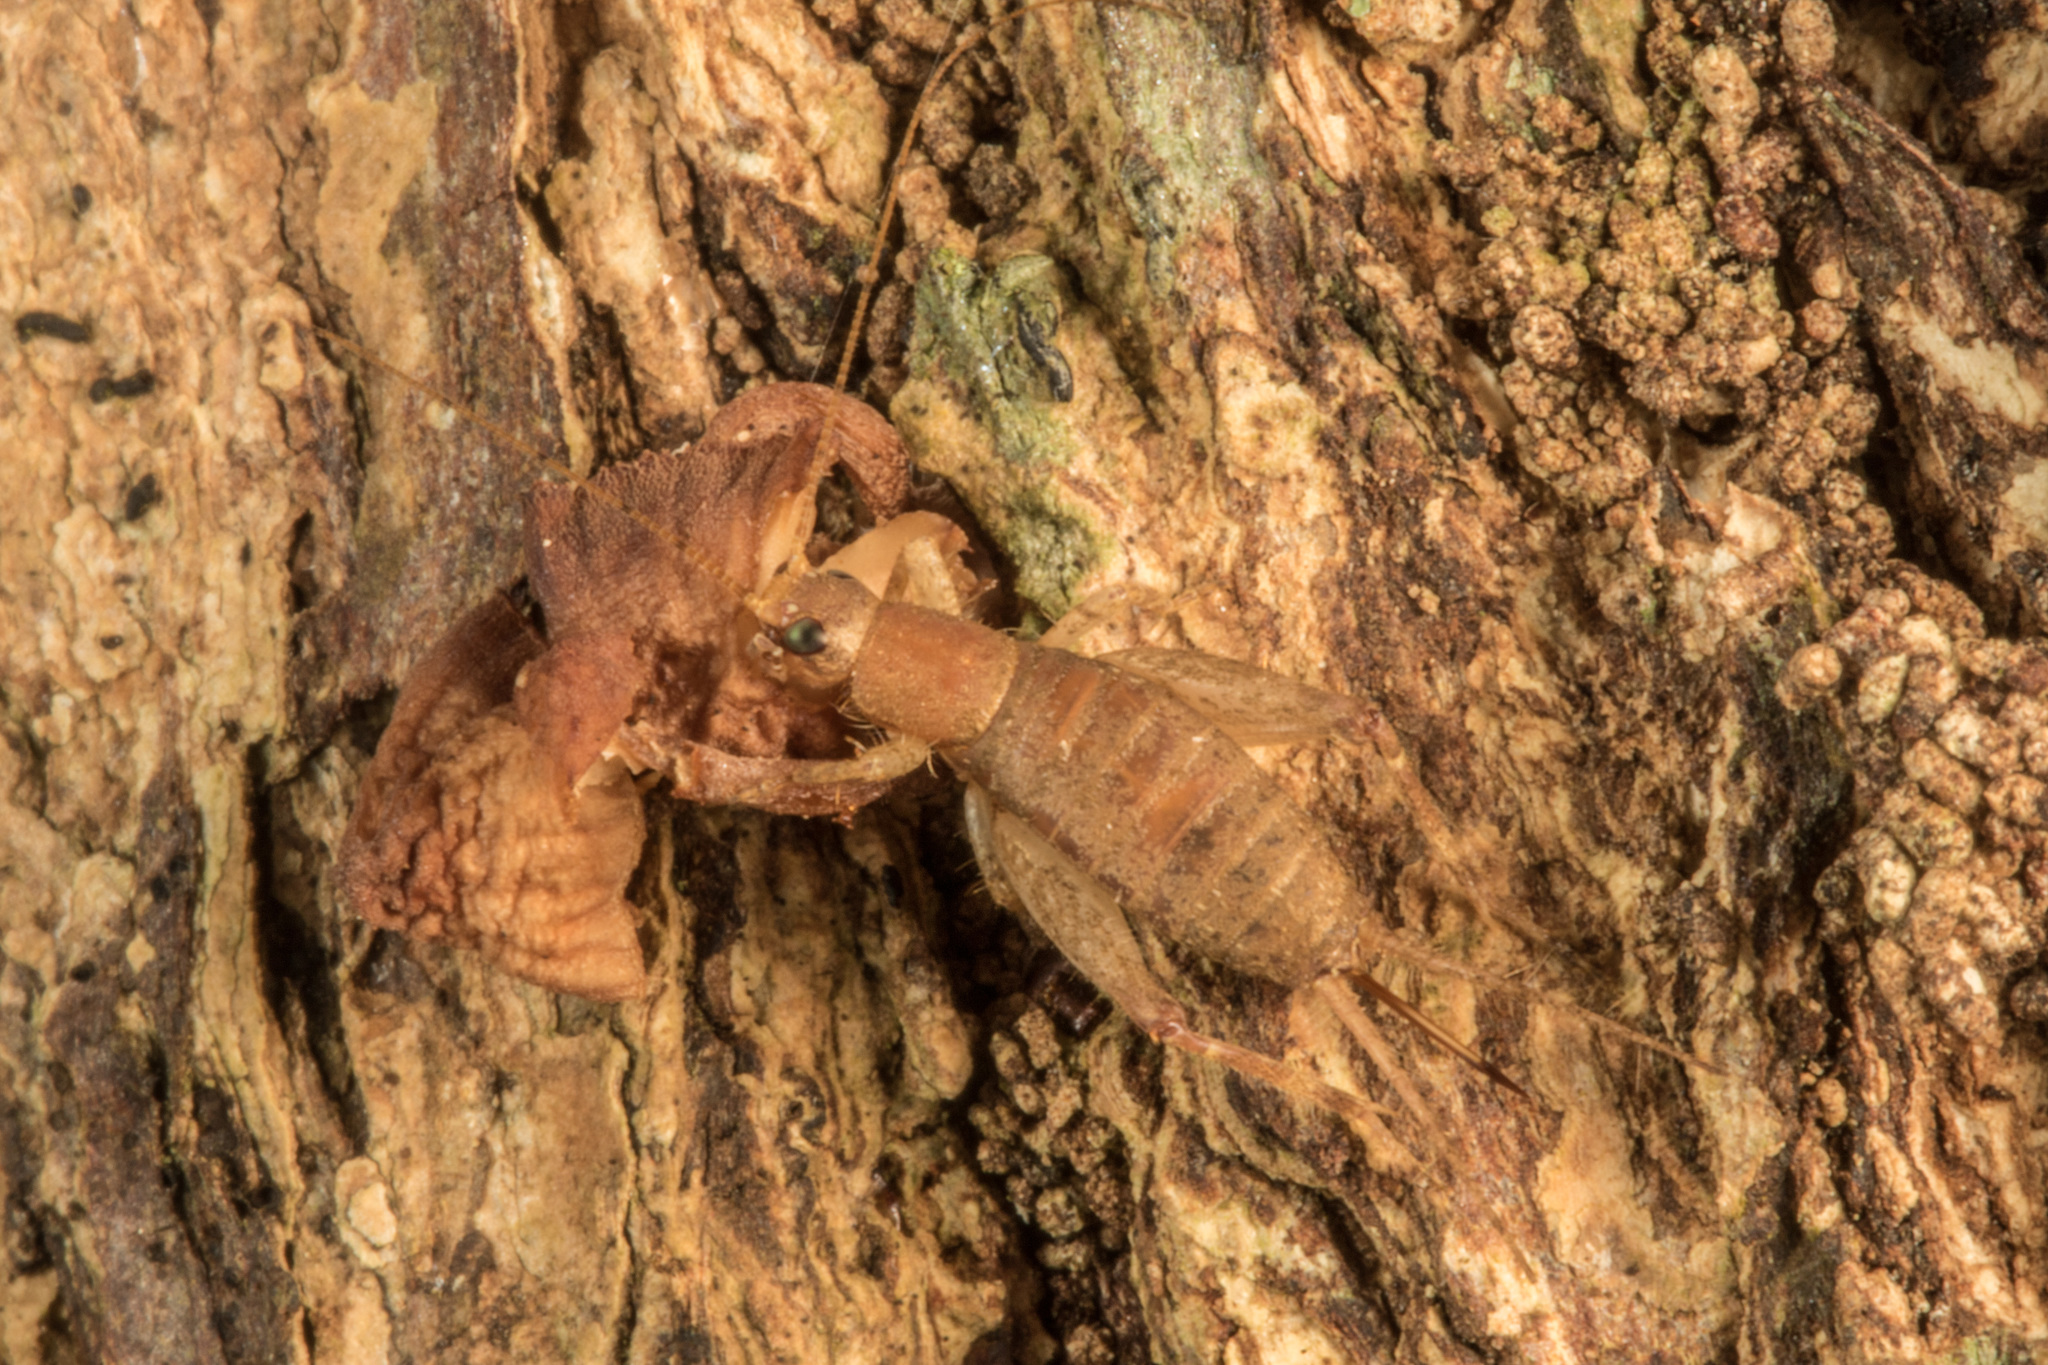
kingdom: Animalia
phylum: Arthropoda
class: Insecta
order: Orthoptera
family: Mogoplistidae
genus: Ornebius
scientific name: Ornebius aperta
